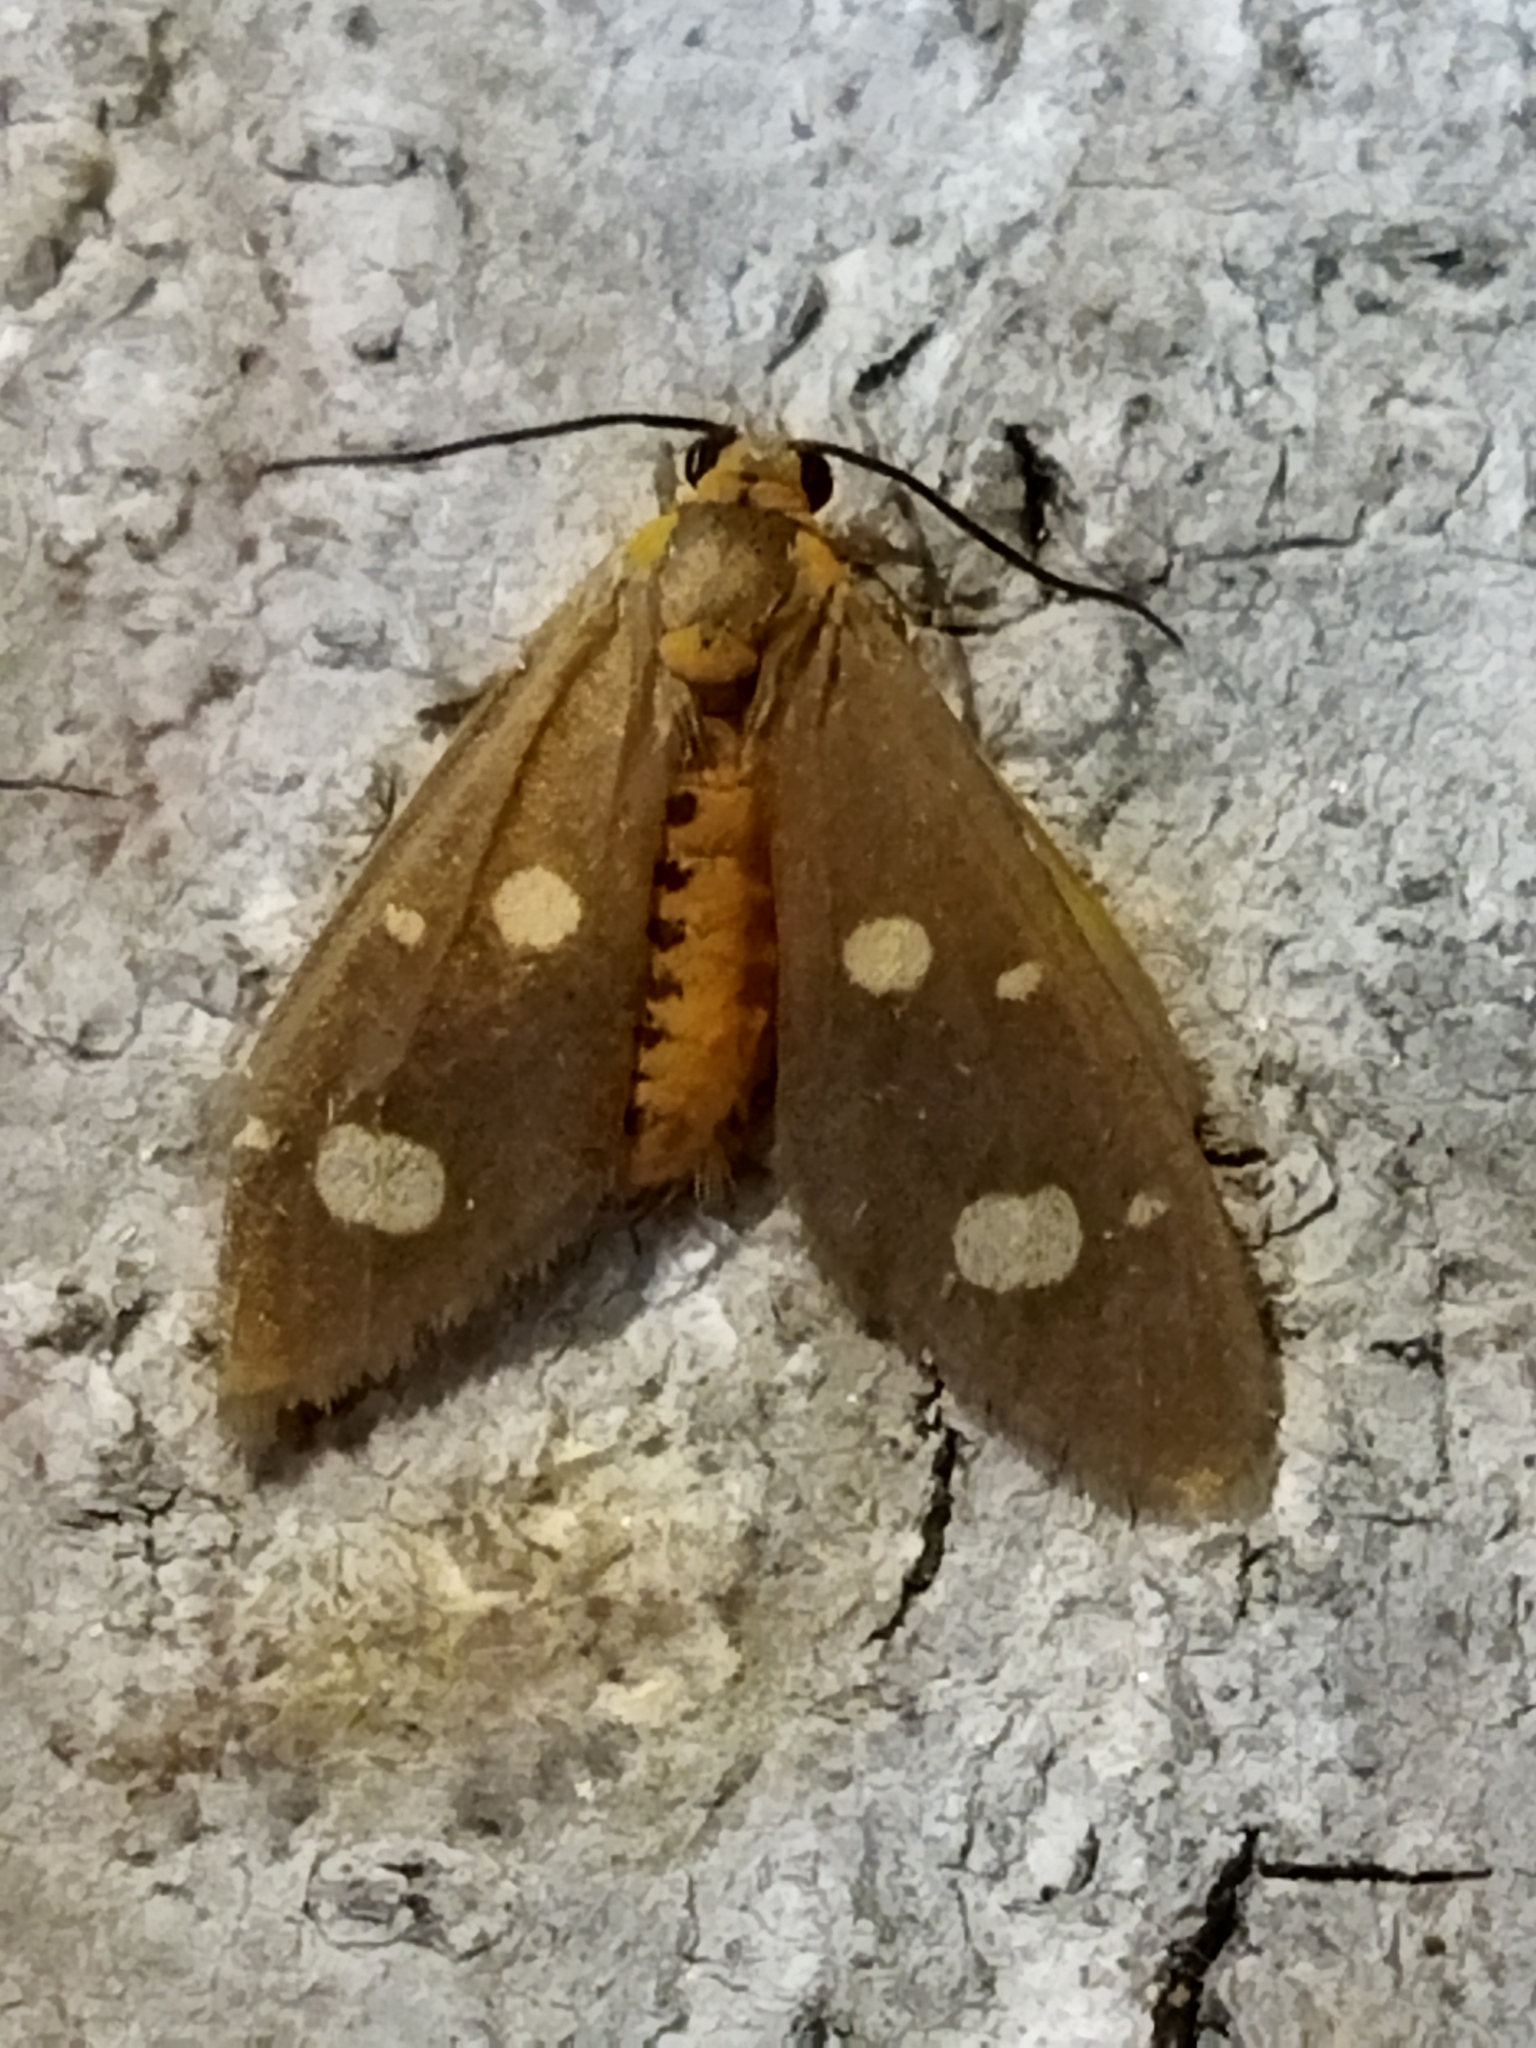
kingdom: Animalia
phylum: Arthropoda
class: Insecta
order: Lepidoptera
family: Erebidae
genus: Dysauxes
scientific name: Dysauxes punctata
